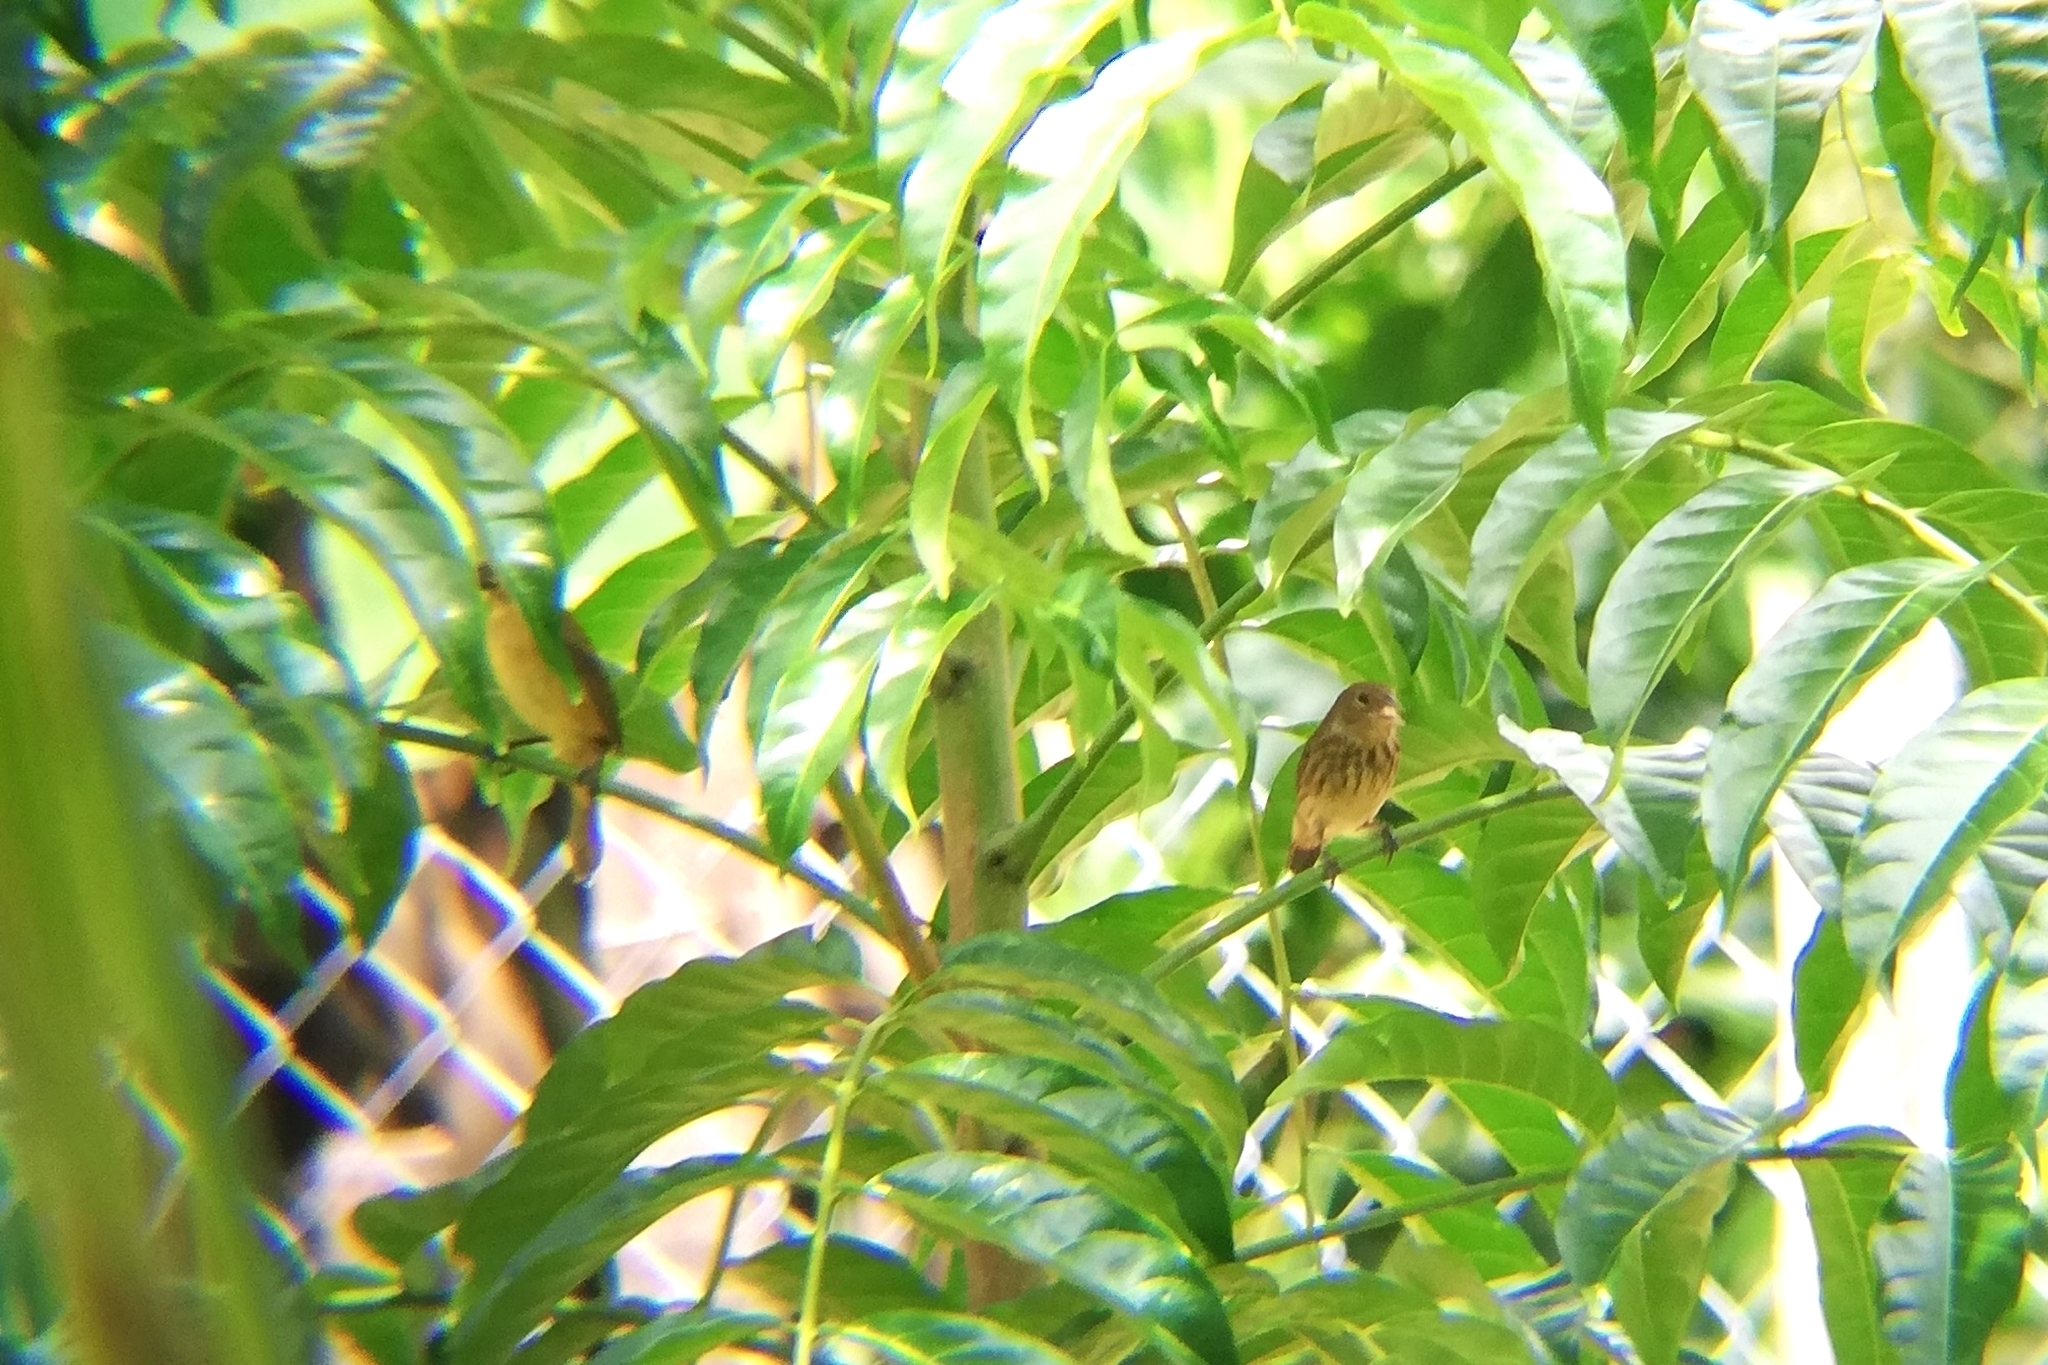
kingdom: Animalia
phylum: Chordata
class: Aves
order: Passeriformes
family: Thraupidae
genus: Volatinia
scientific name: Volatinia jacarina
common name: Blue-black grassquit
